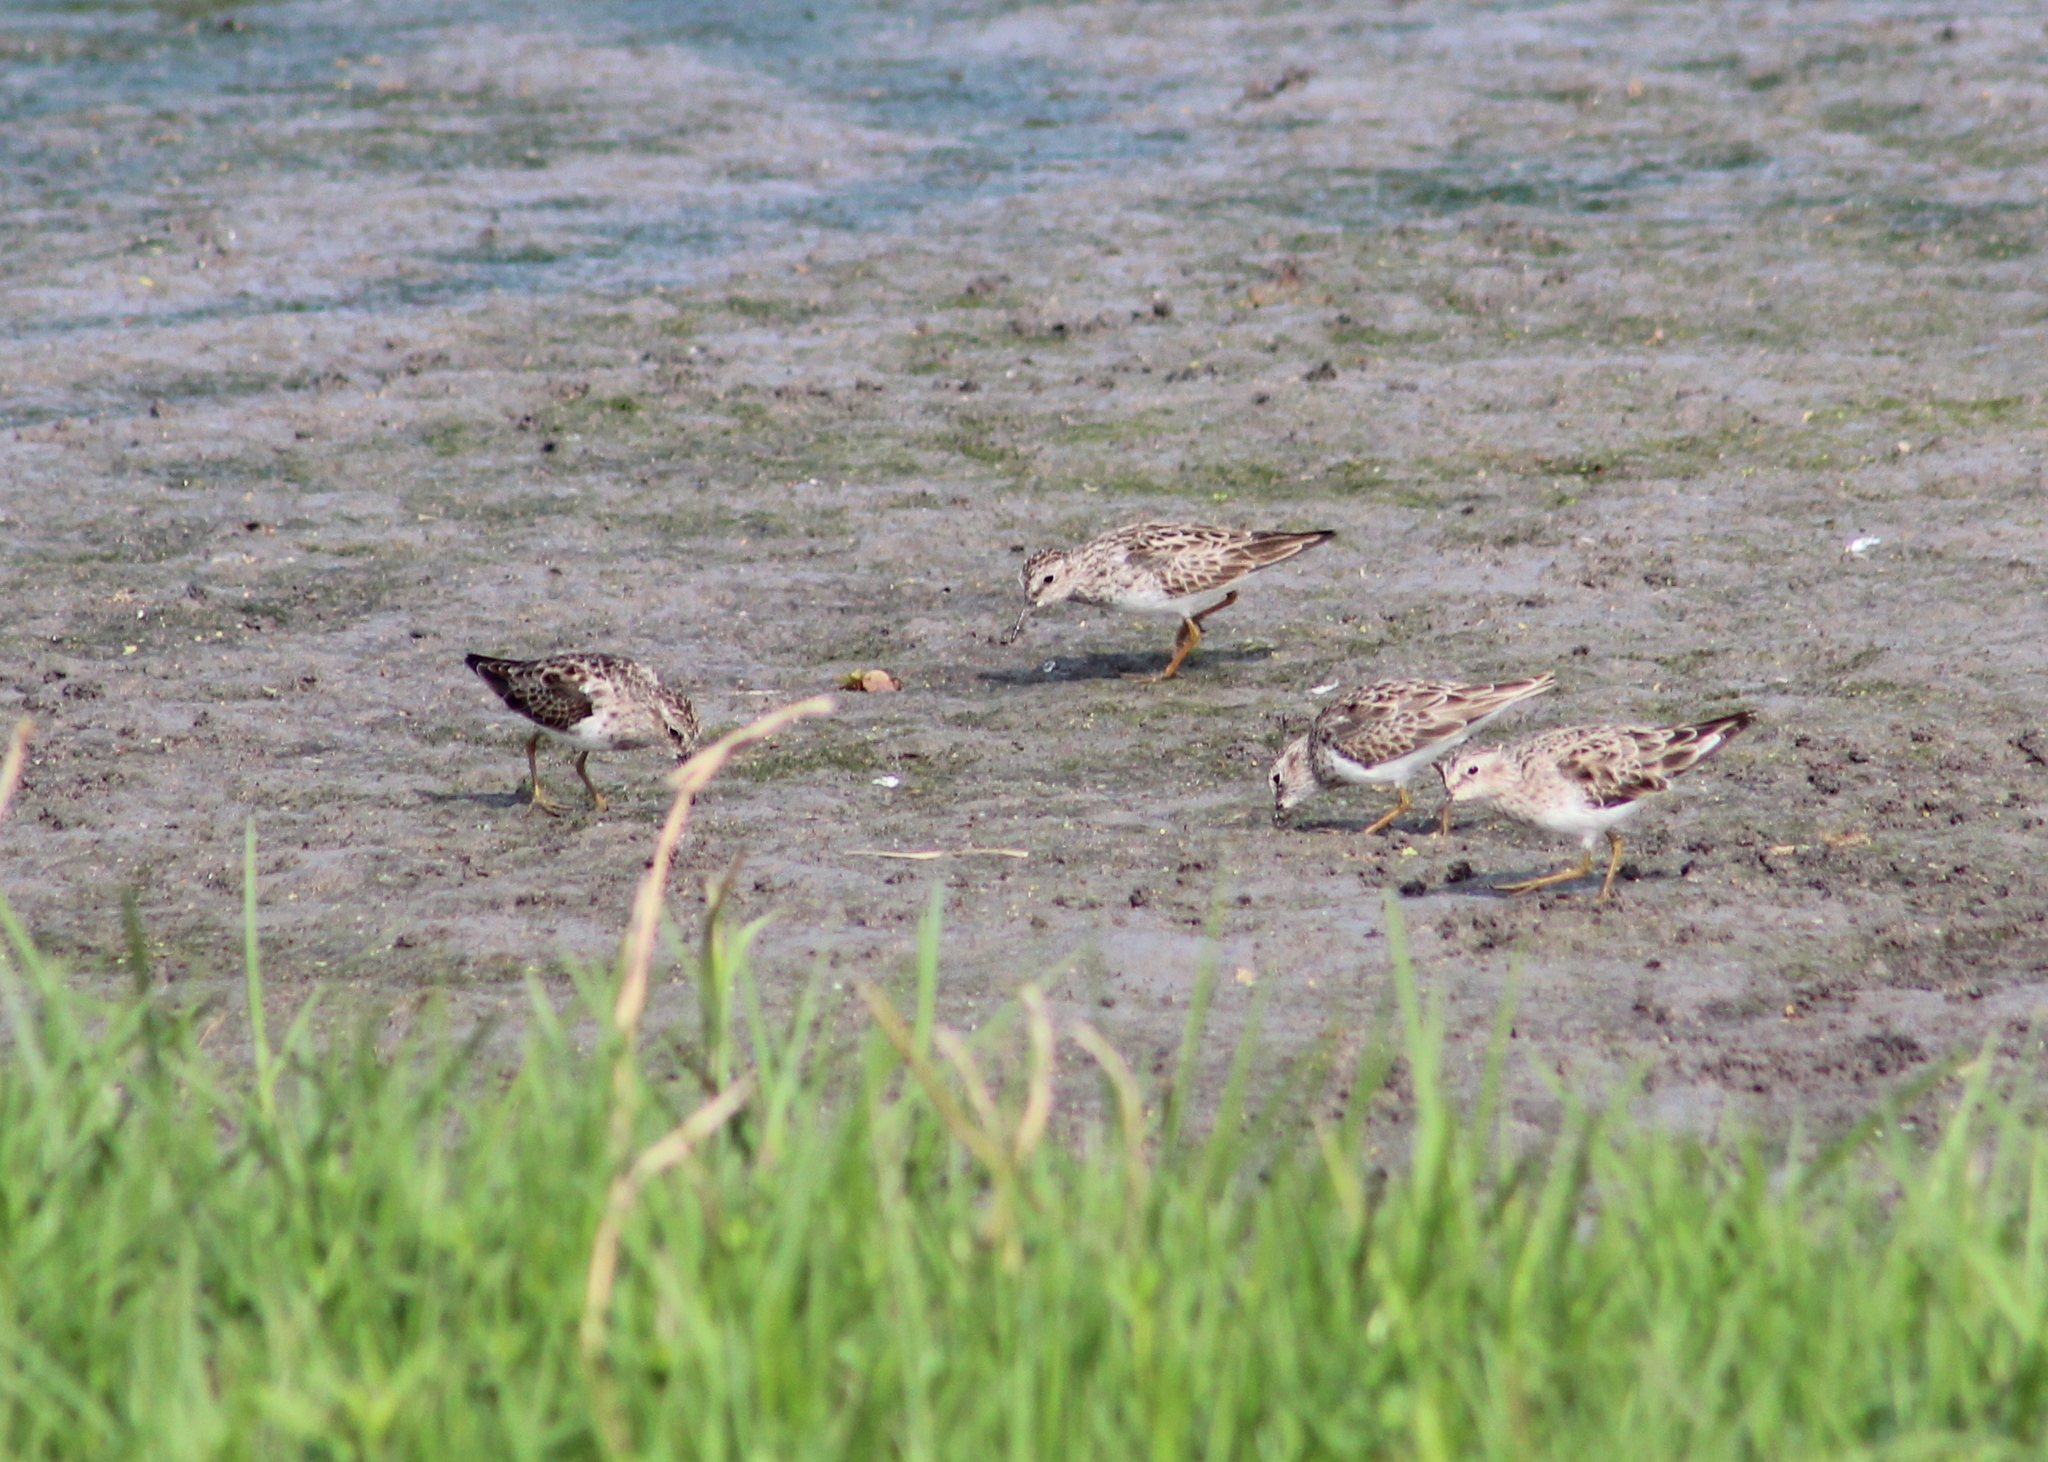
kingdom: Animalia
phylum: Chordata
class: Aves
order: Charadriiformes
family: Scolopacidae
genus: Calidris
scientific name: Calidris minutilla
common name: Least sandpiper
